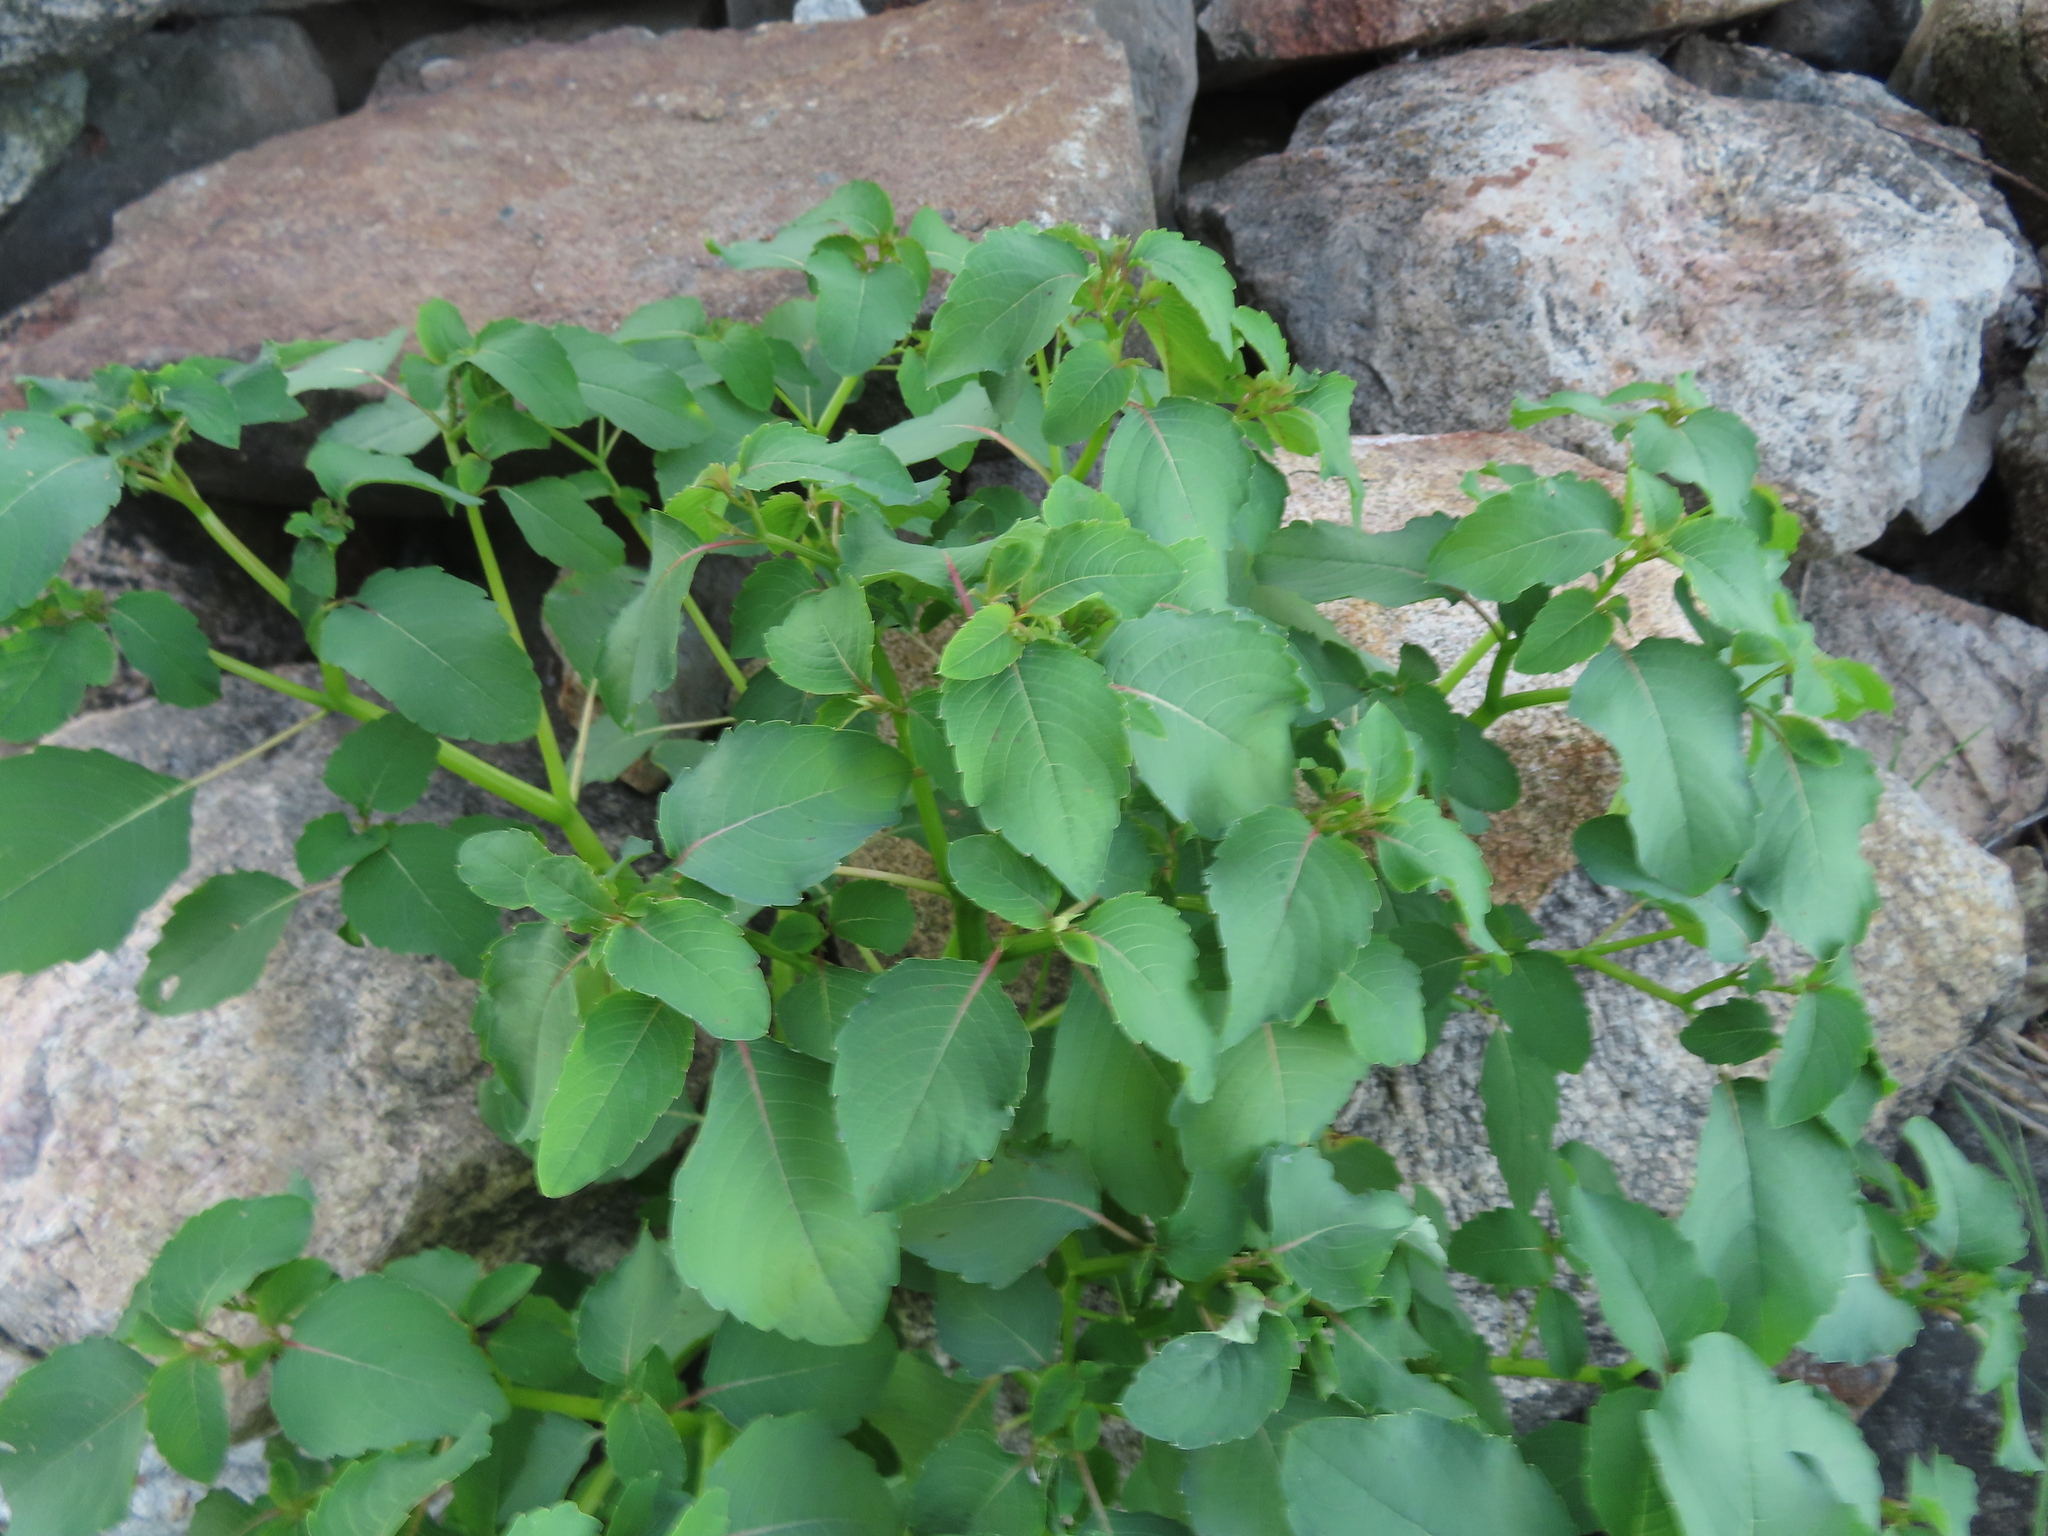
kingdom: Plantae
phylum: Tracheophyta
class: Magnoliopsida
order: Ericales
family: Balsaminaceae
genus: Impatiens
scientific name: Impatiens capensis
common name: Orange balsam
